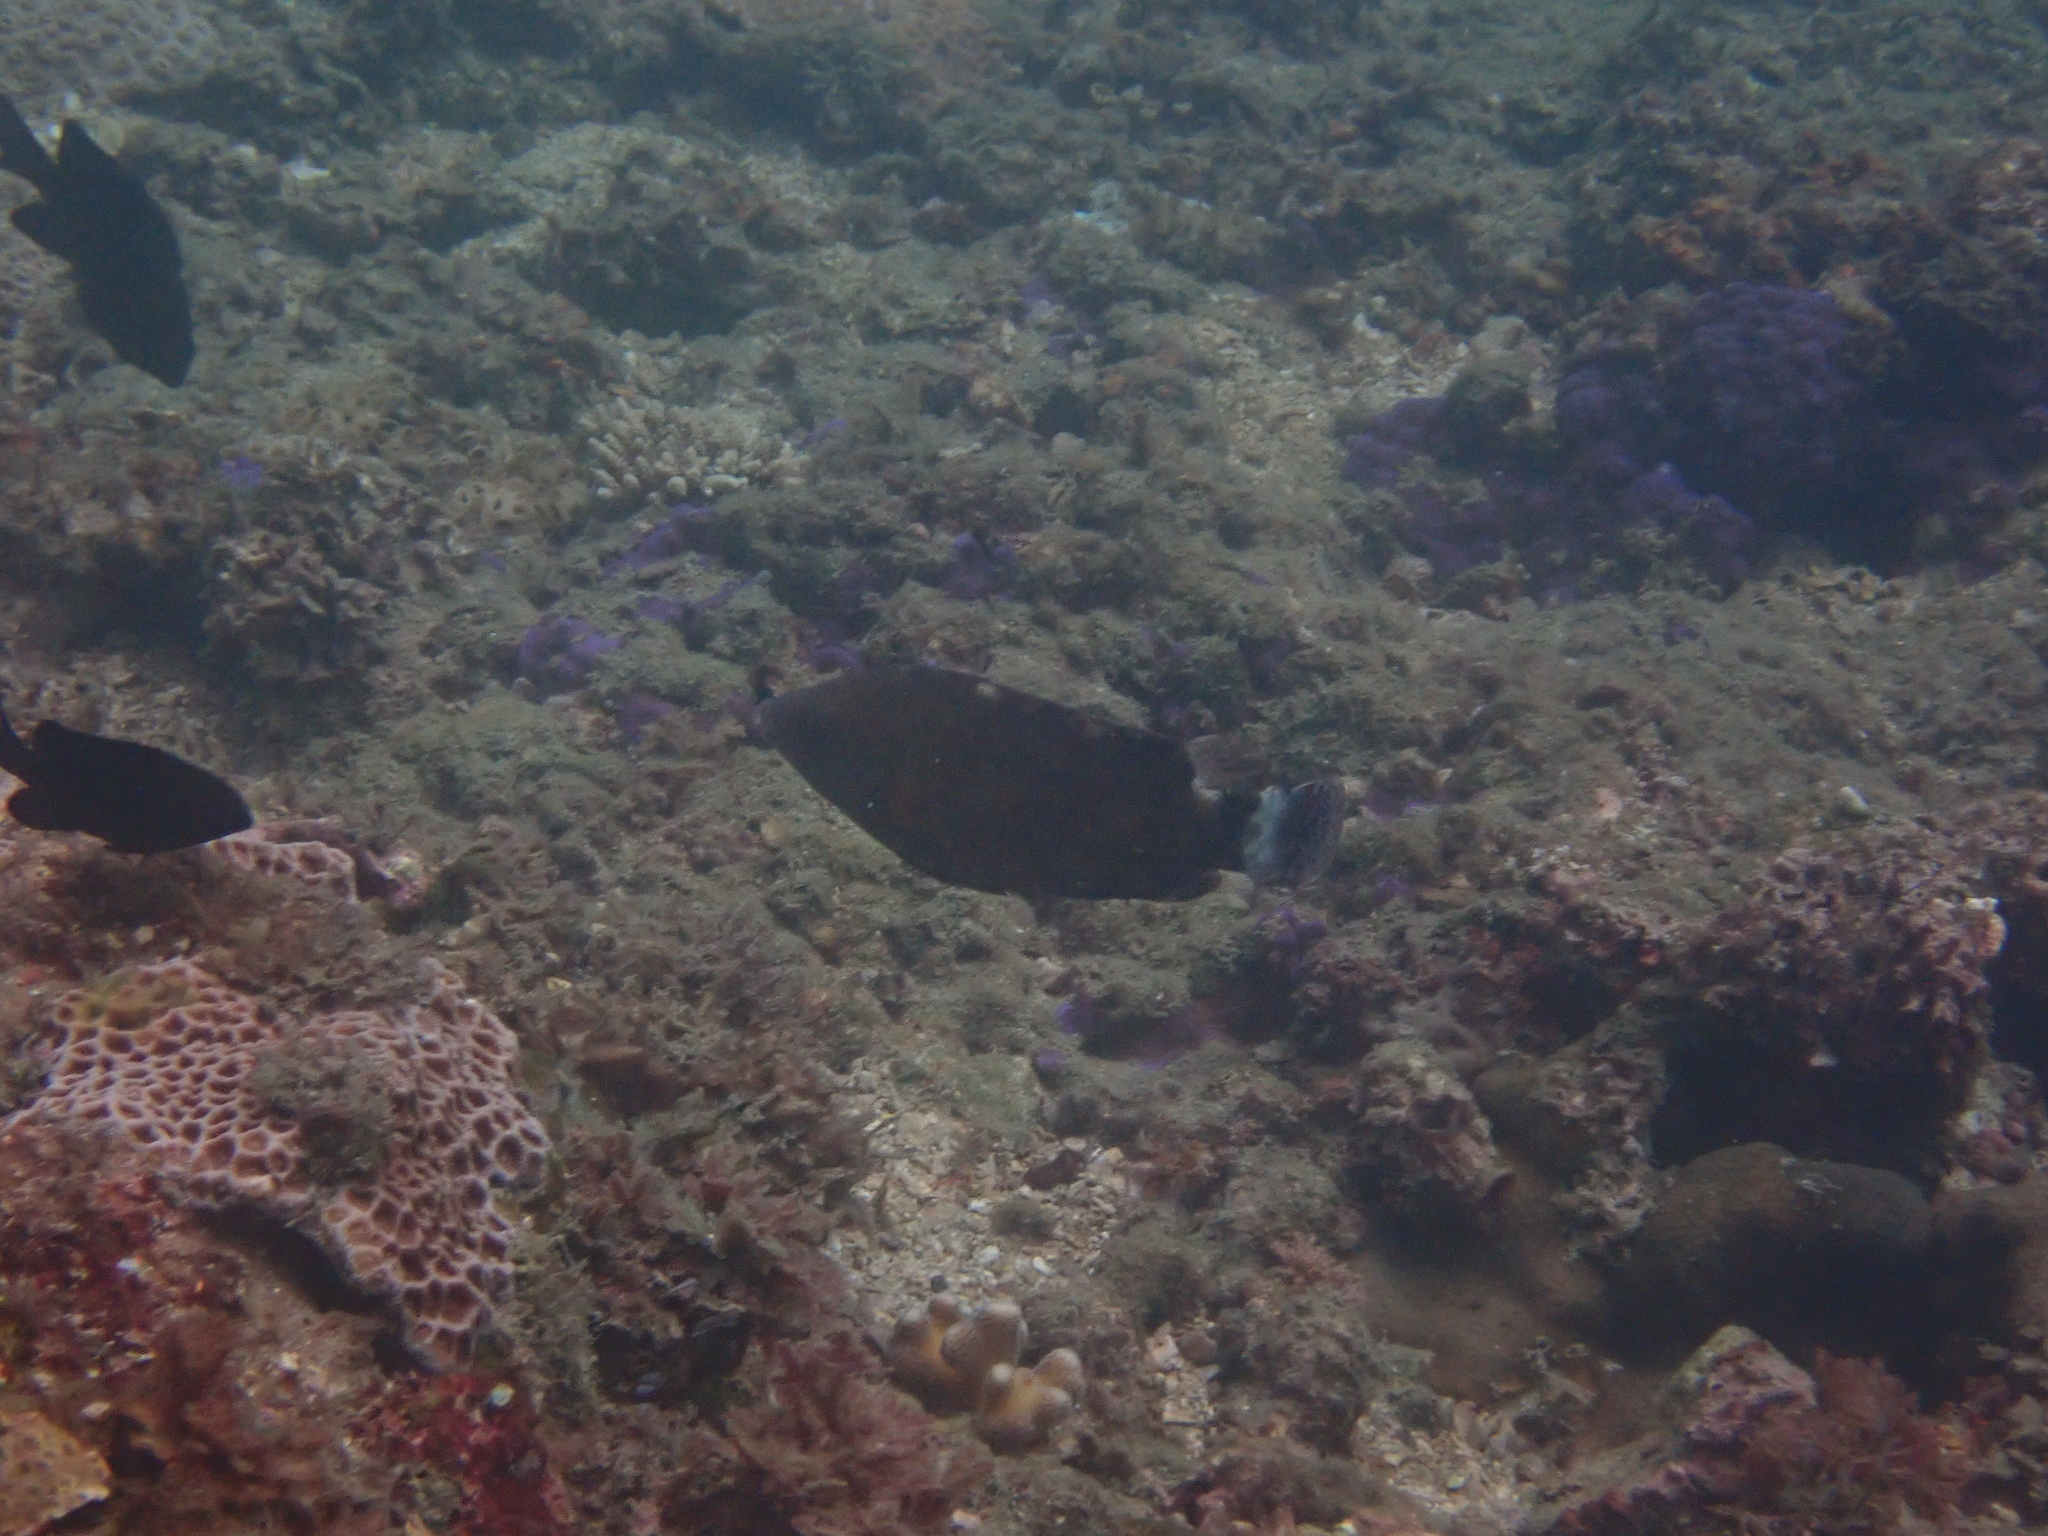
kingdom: Animalia
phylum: Chordata
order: Perciformes
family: Labridae
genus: Cheilinus
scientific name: Cheilinus chlorourus
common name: Floral wrasse
